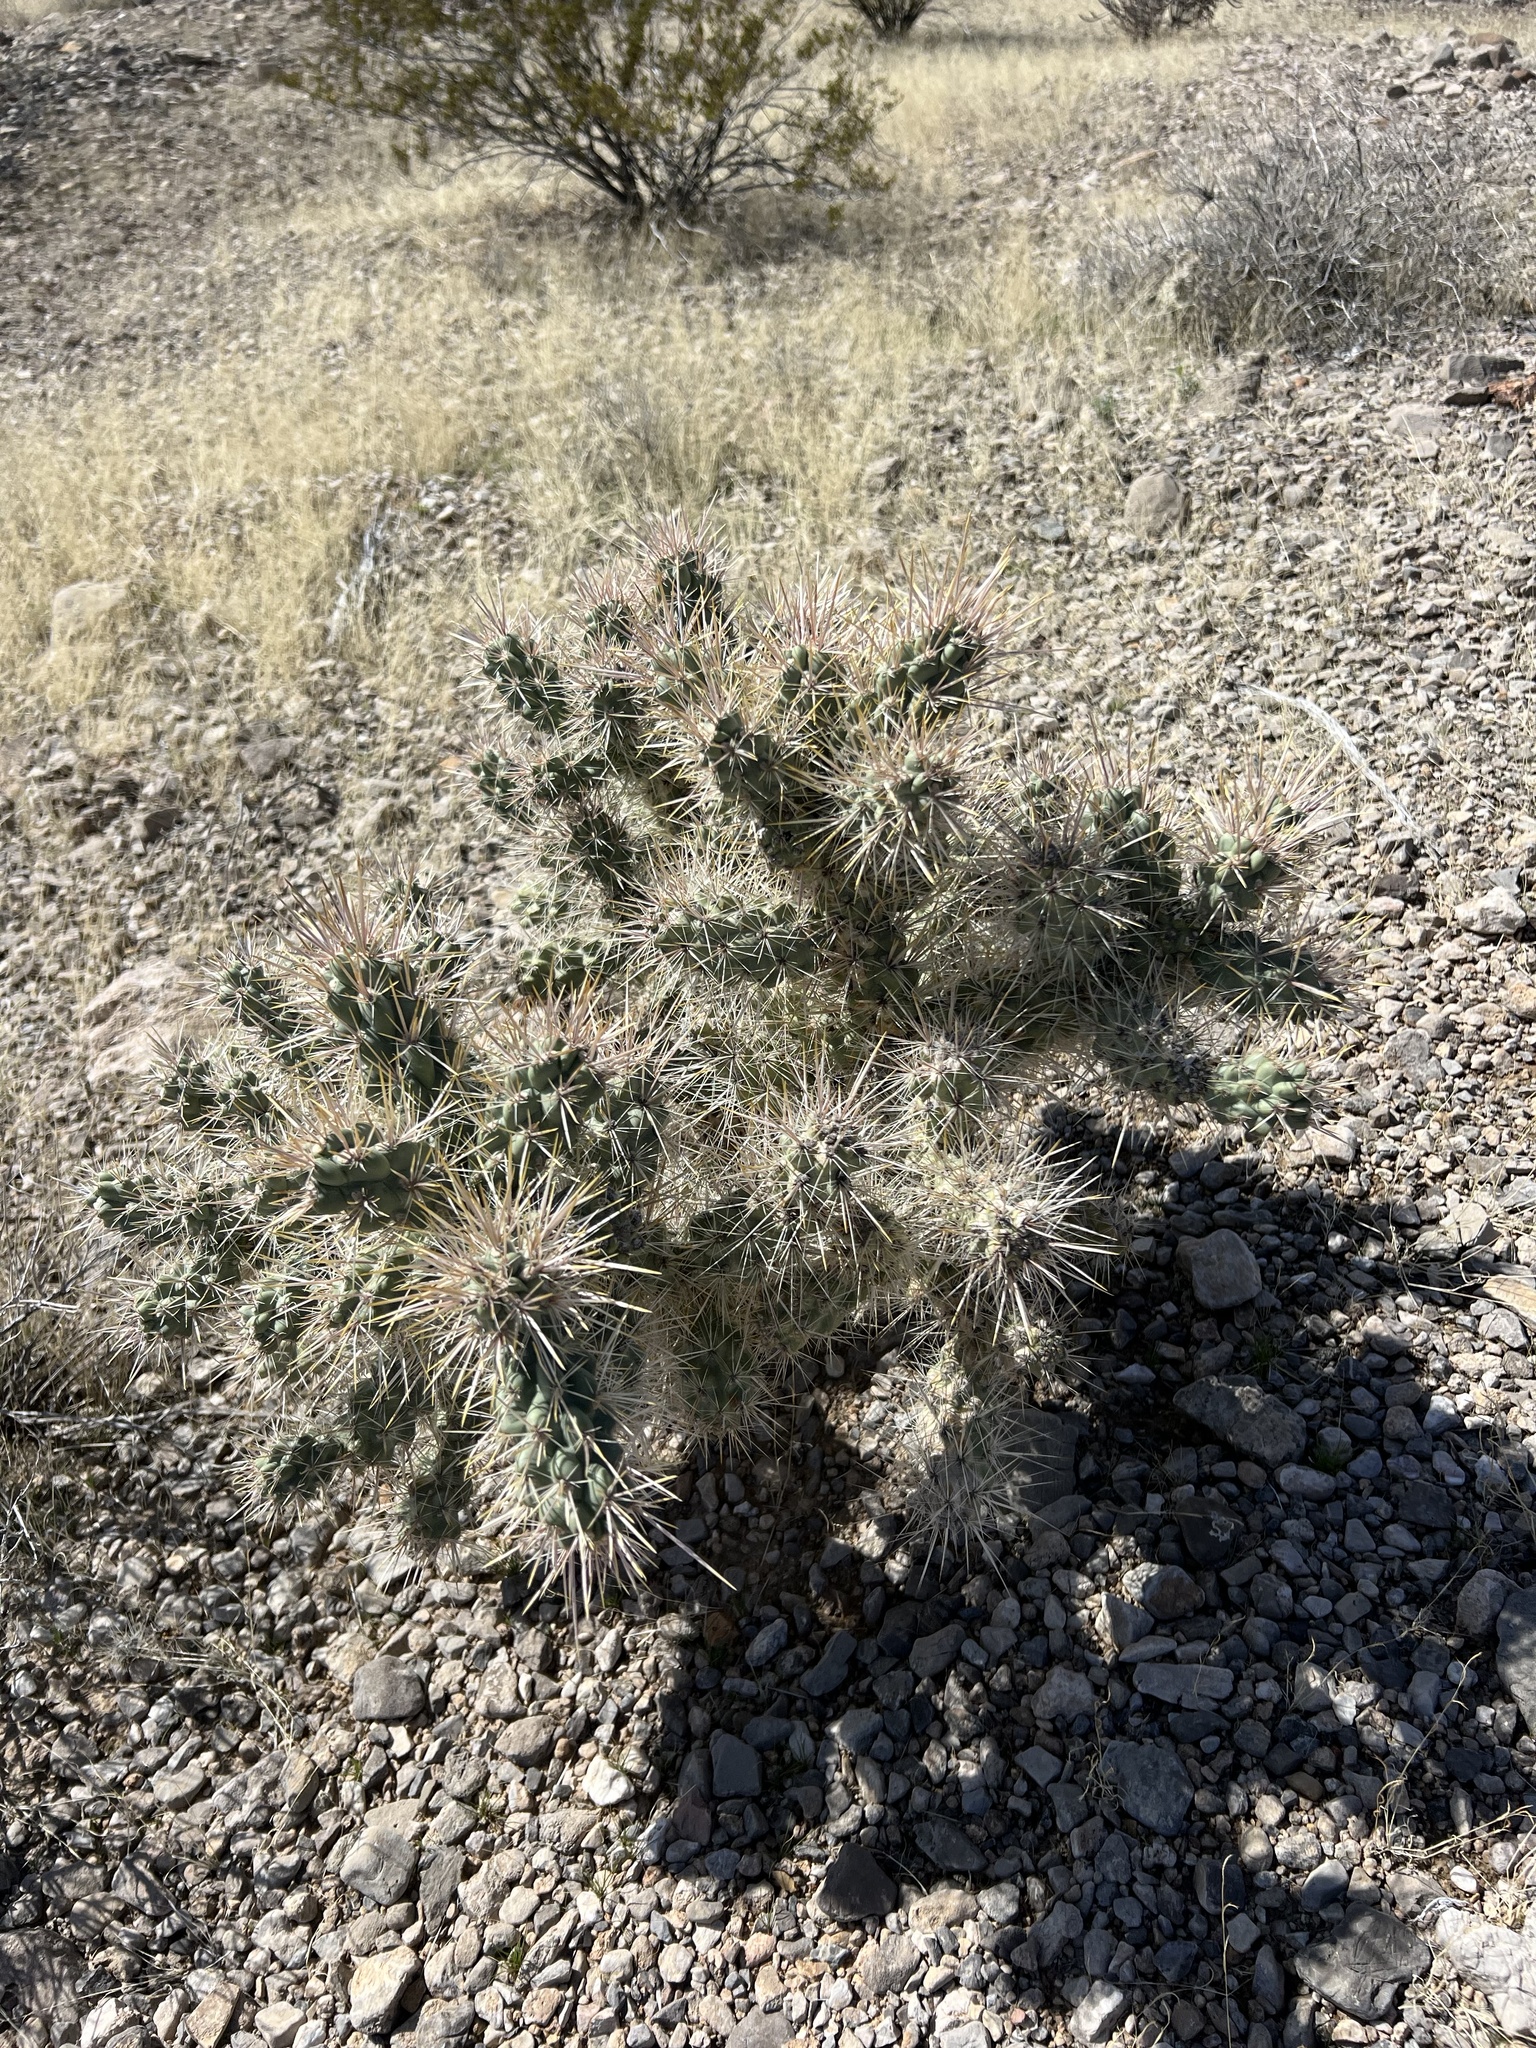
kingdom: Plantae
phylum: Tracheophyta
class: Magnoliopsida
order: Caryophyllales
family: Cactaceae
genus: Cylindropuntia
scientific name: Cylindropuntia echinocarpa
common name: Ground cholla
